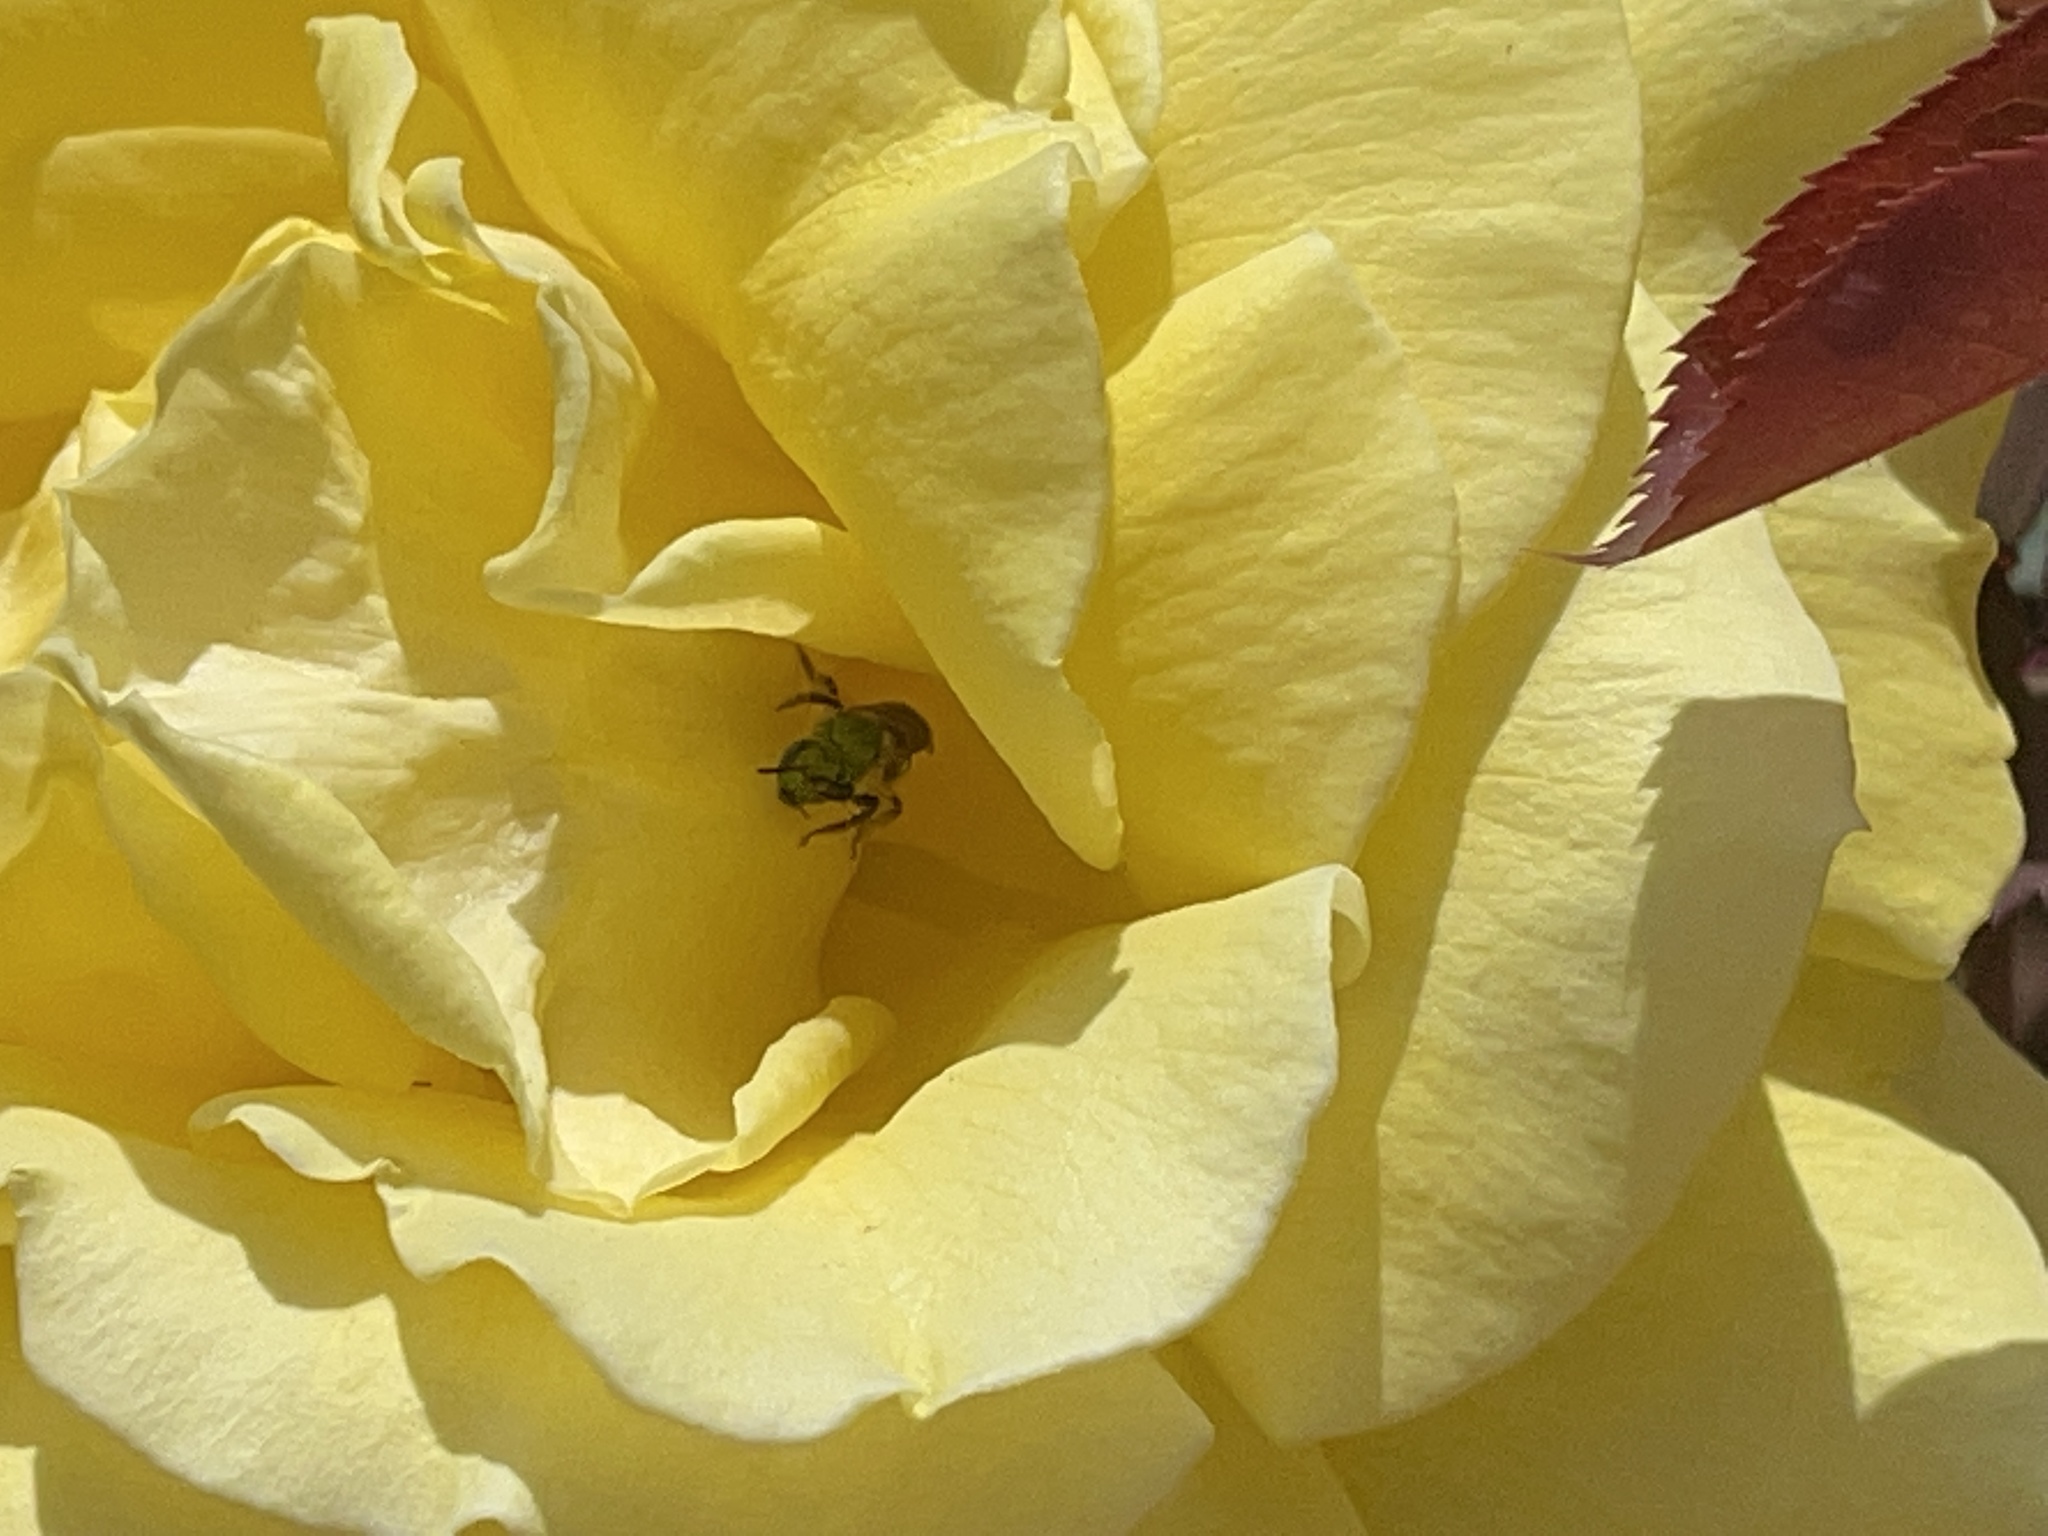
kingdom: Animalia
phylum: Arthropoda
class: Insecta
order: Hymenoptera
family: Halictidae
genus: Agapostemon
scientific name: Agapostemon virescens
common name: Bicolored striped sweat bee
